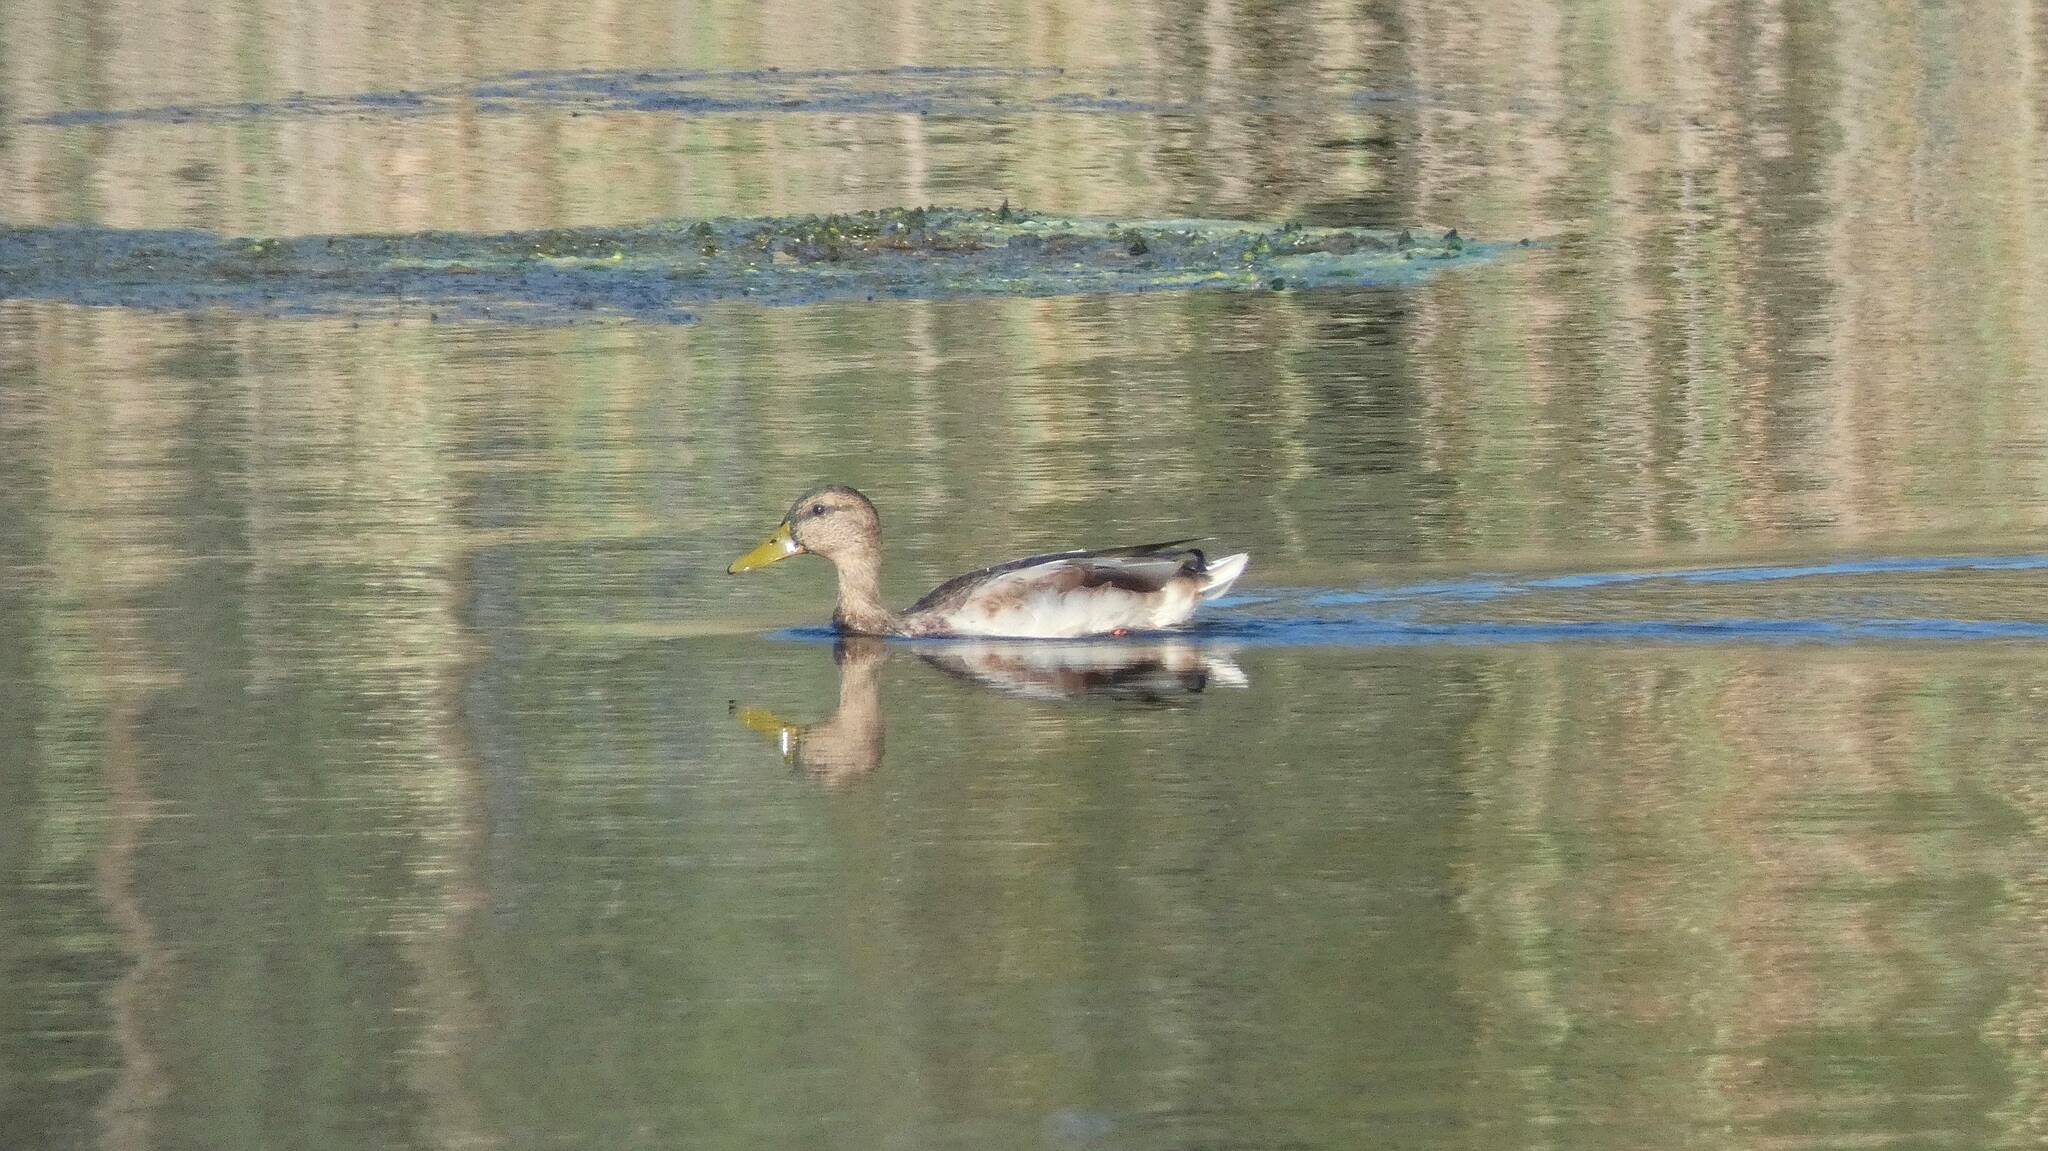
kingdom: Animalia
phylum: Chordata
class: Aves
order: Anseriformes
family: Anatidae
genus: Anas
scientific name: Anas platyrhynchos
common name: Mallard
